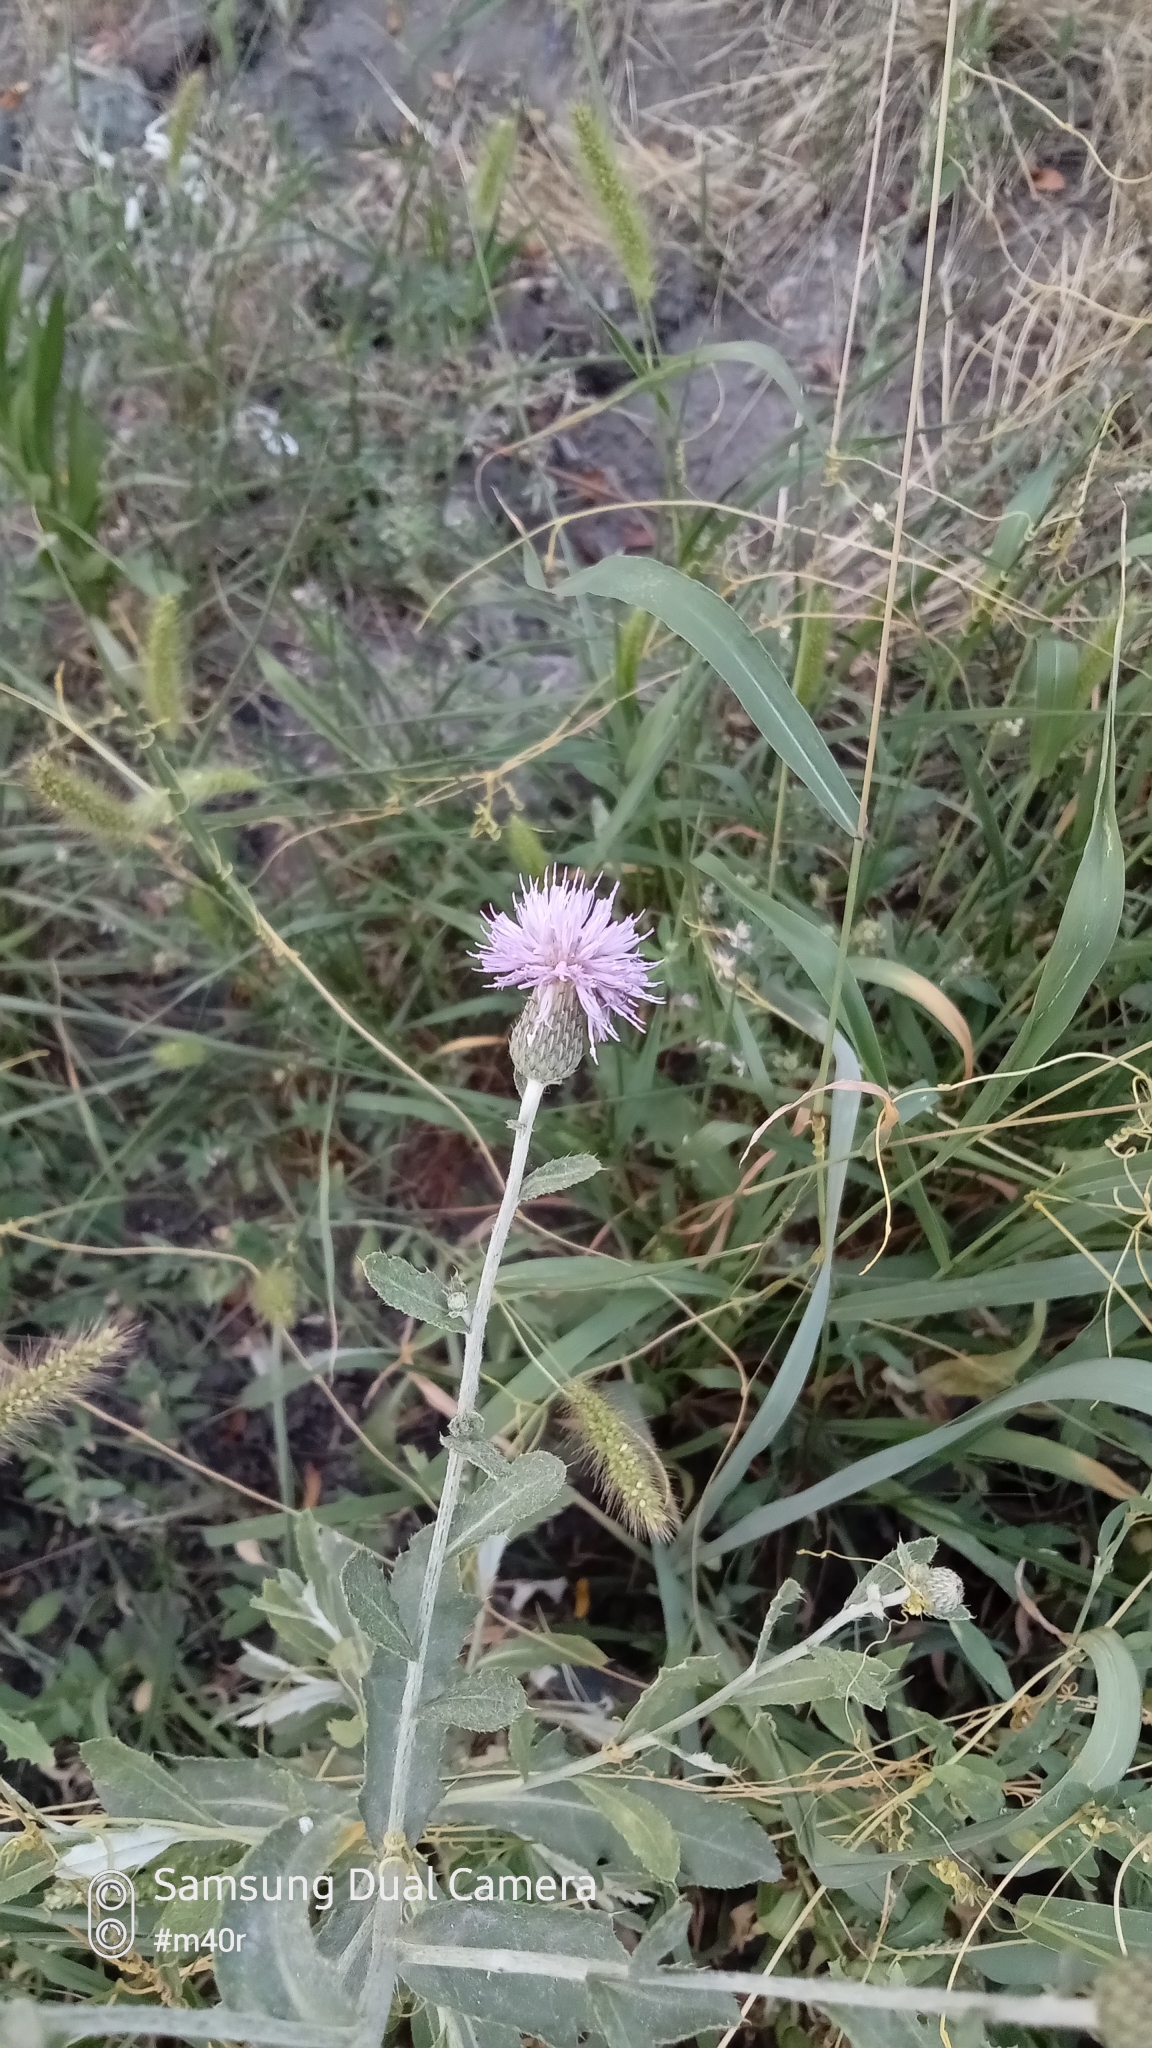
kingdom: Plantae
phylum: Tracheophyta
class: Magnoliopsida
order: Asterales
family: Asteraceae
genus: Cirsium
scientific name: Cirsium arvense
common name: Creeping thistle
